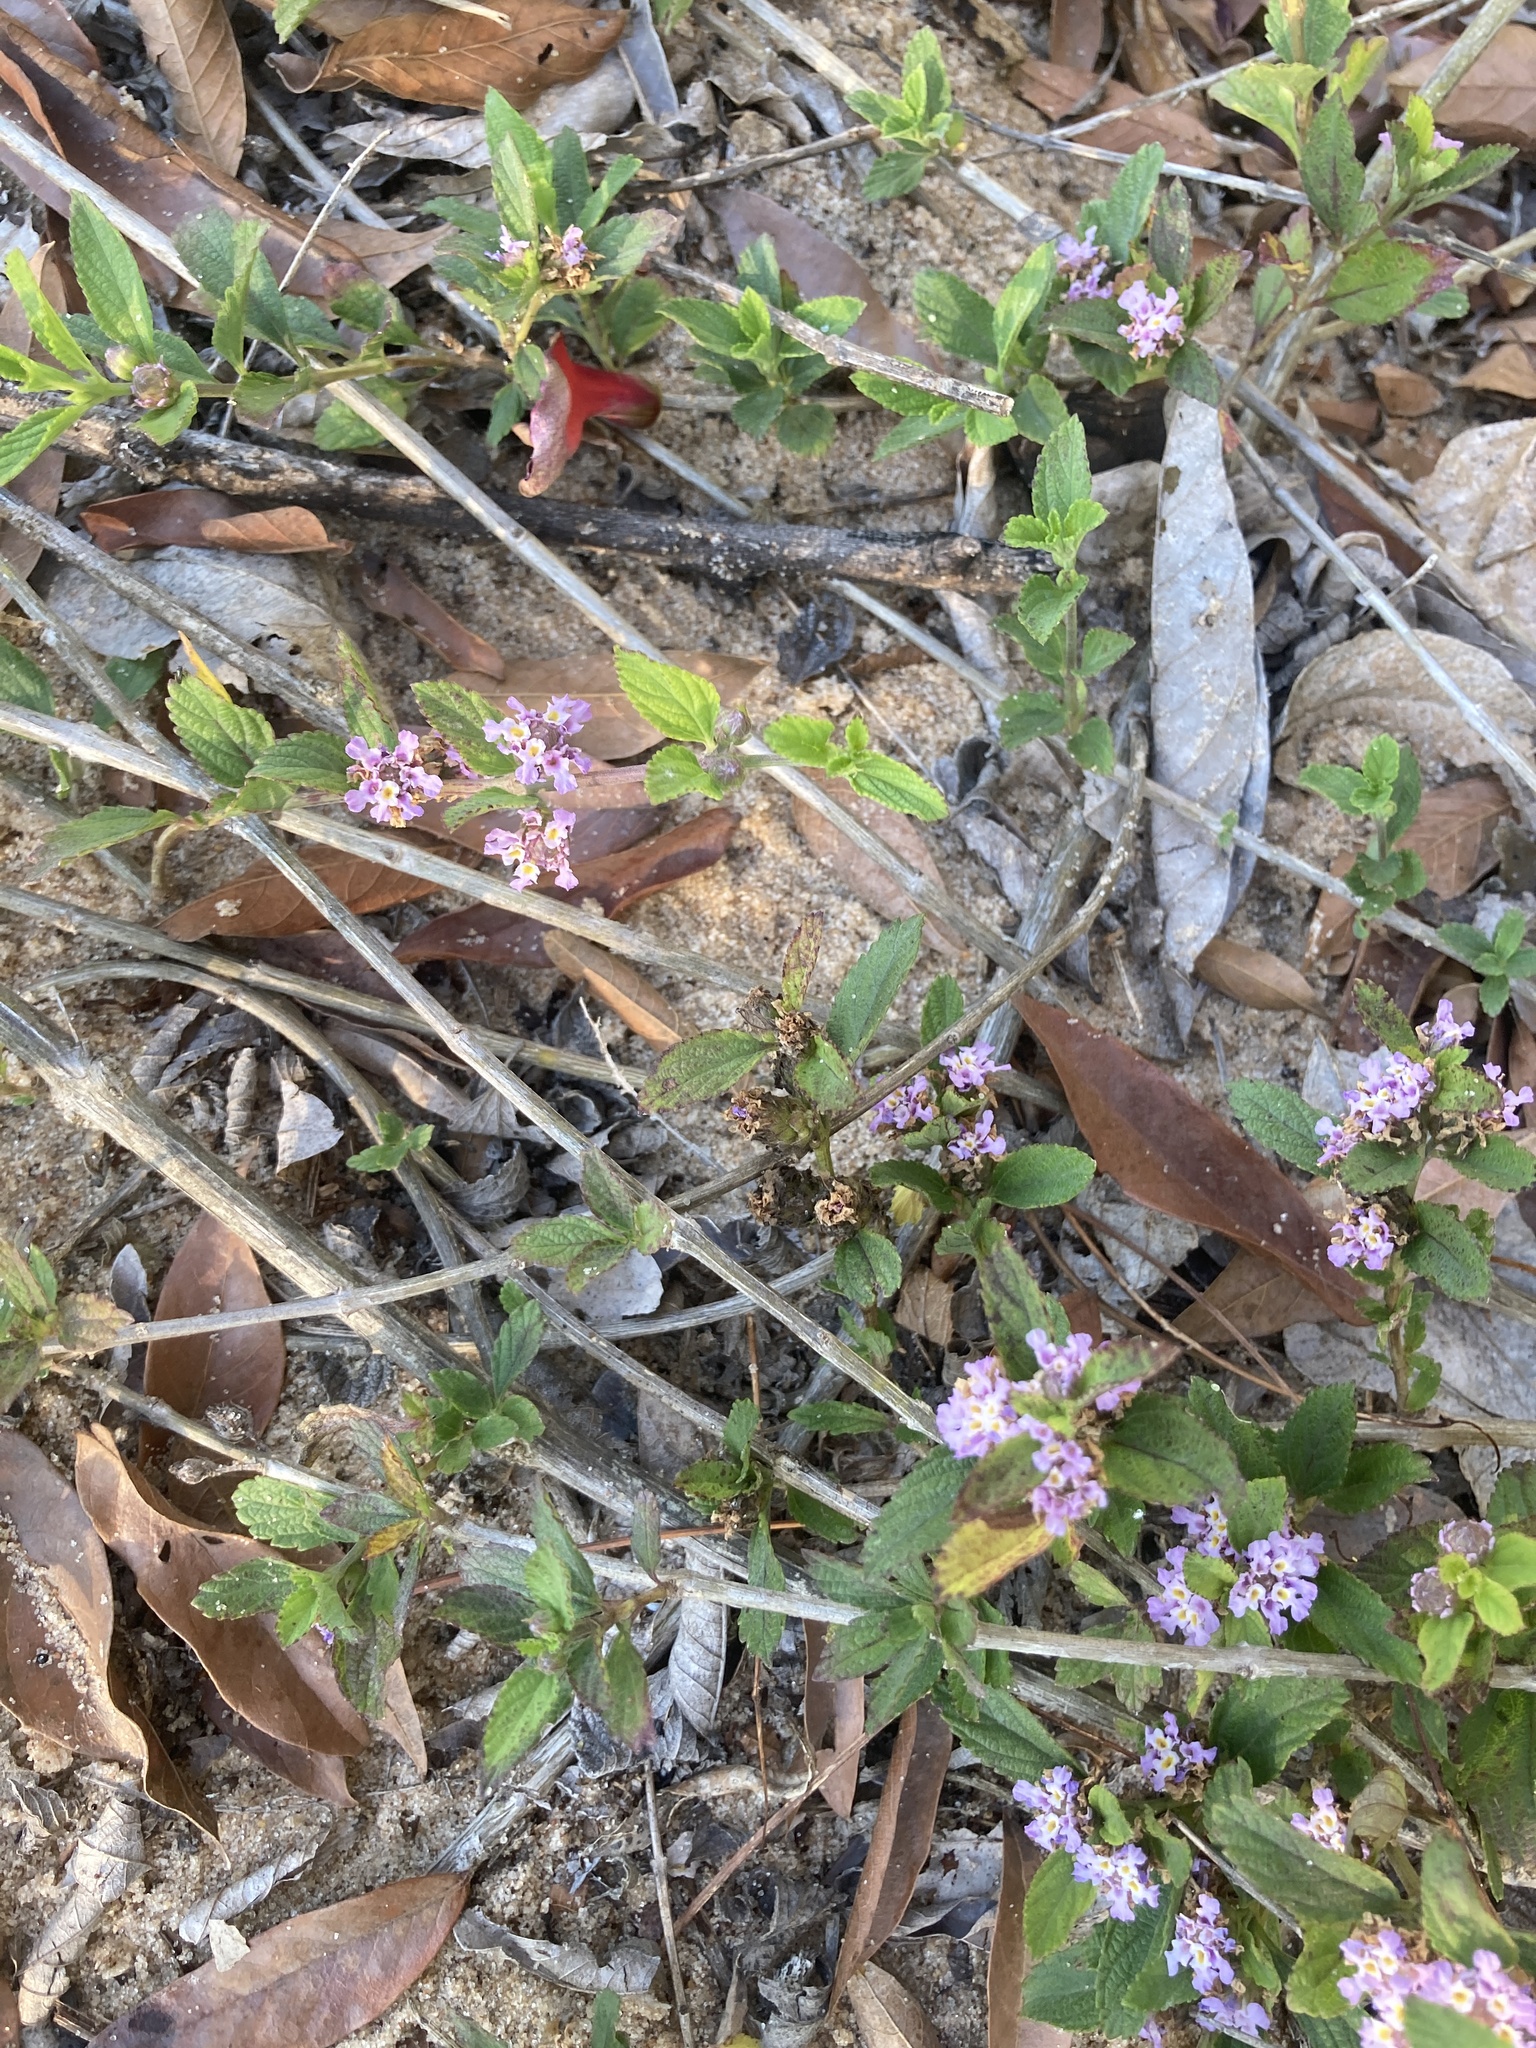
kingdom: Plantae
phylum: Tracheophyta
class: Magnoliopsida
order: Lamiales
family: Verbenaceae
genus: Lippia
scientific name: Lippia alba
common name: Bushy matgrass
